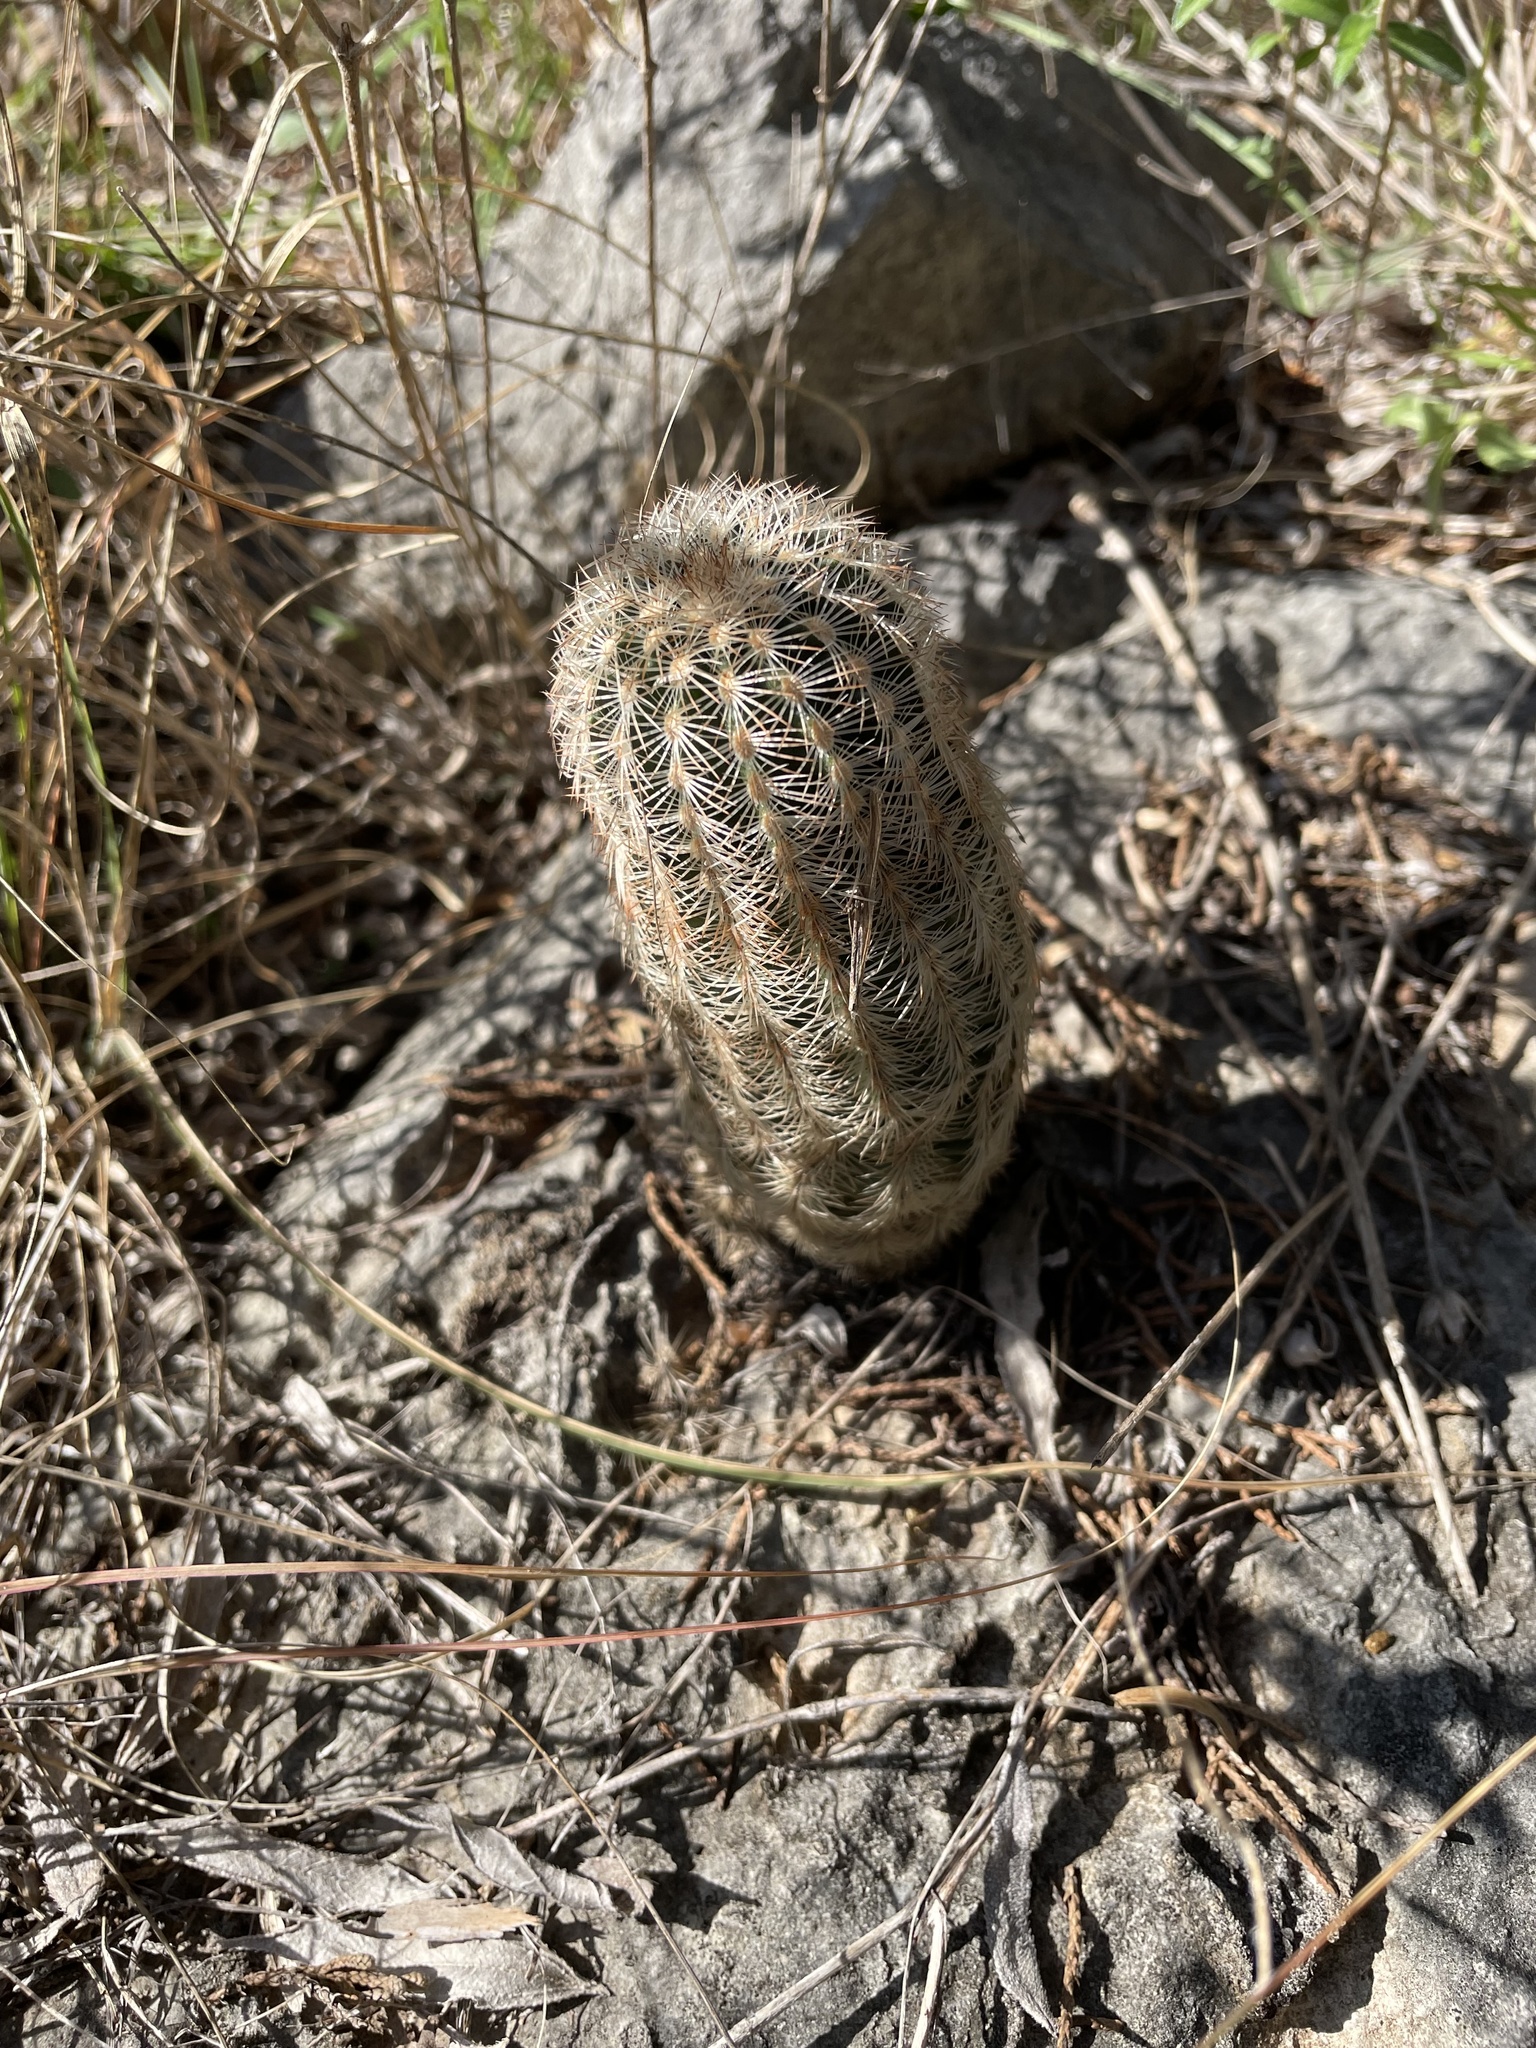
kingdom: Plantae
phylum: Tracheophyta
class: Magnoliopsida
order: Caryophyllales
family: Cactaceae
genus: Echinocereus
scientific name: Echinocereus reichenbachii
